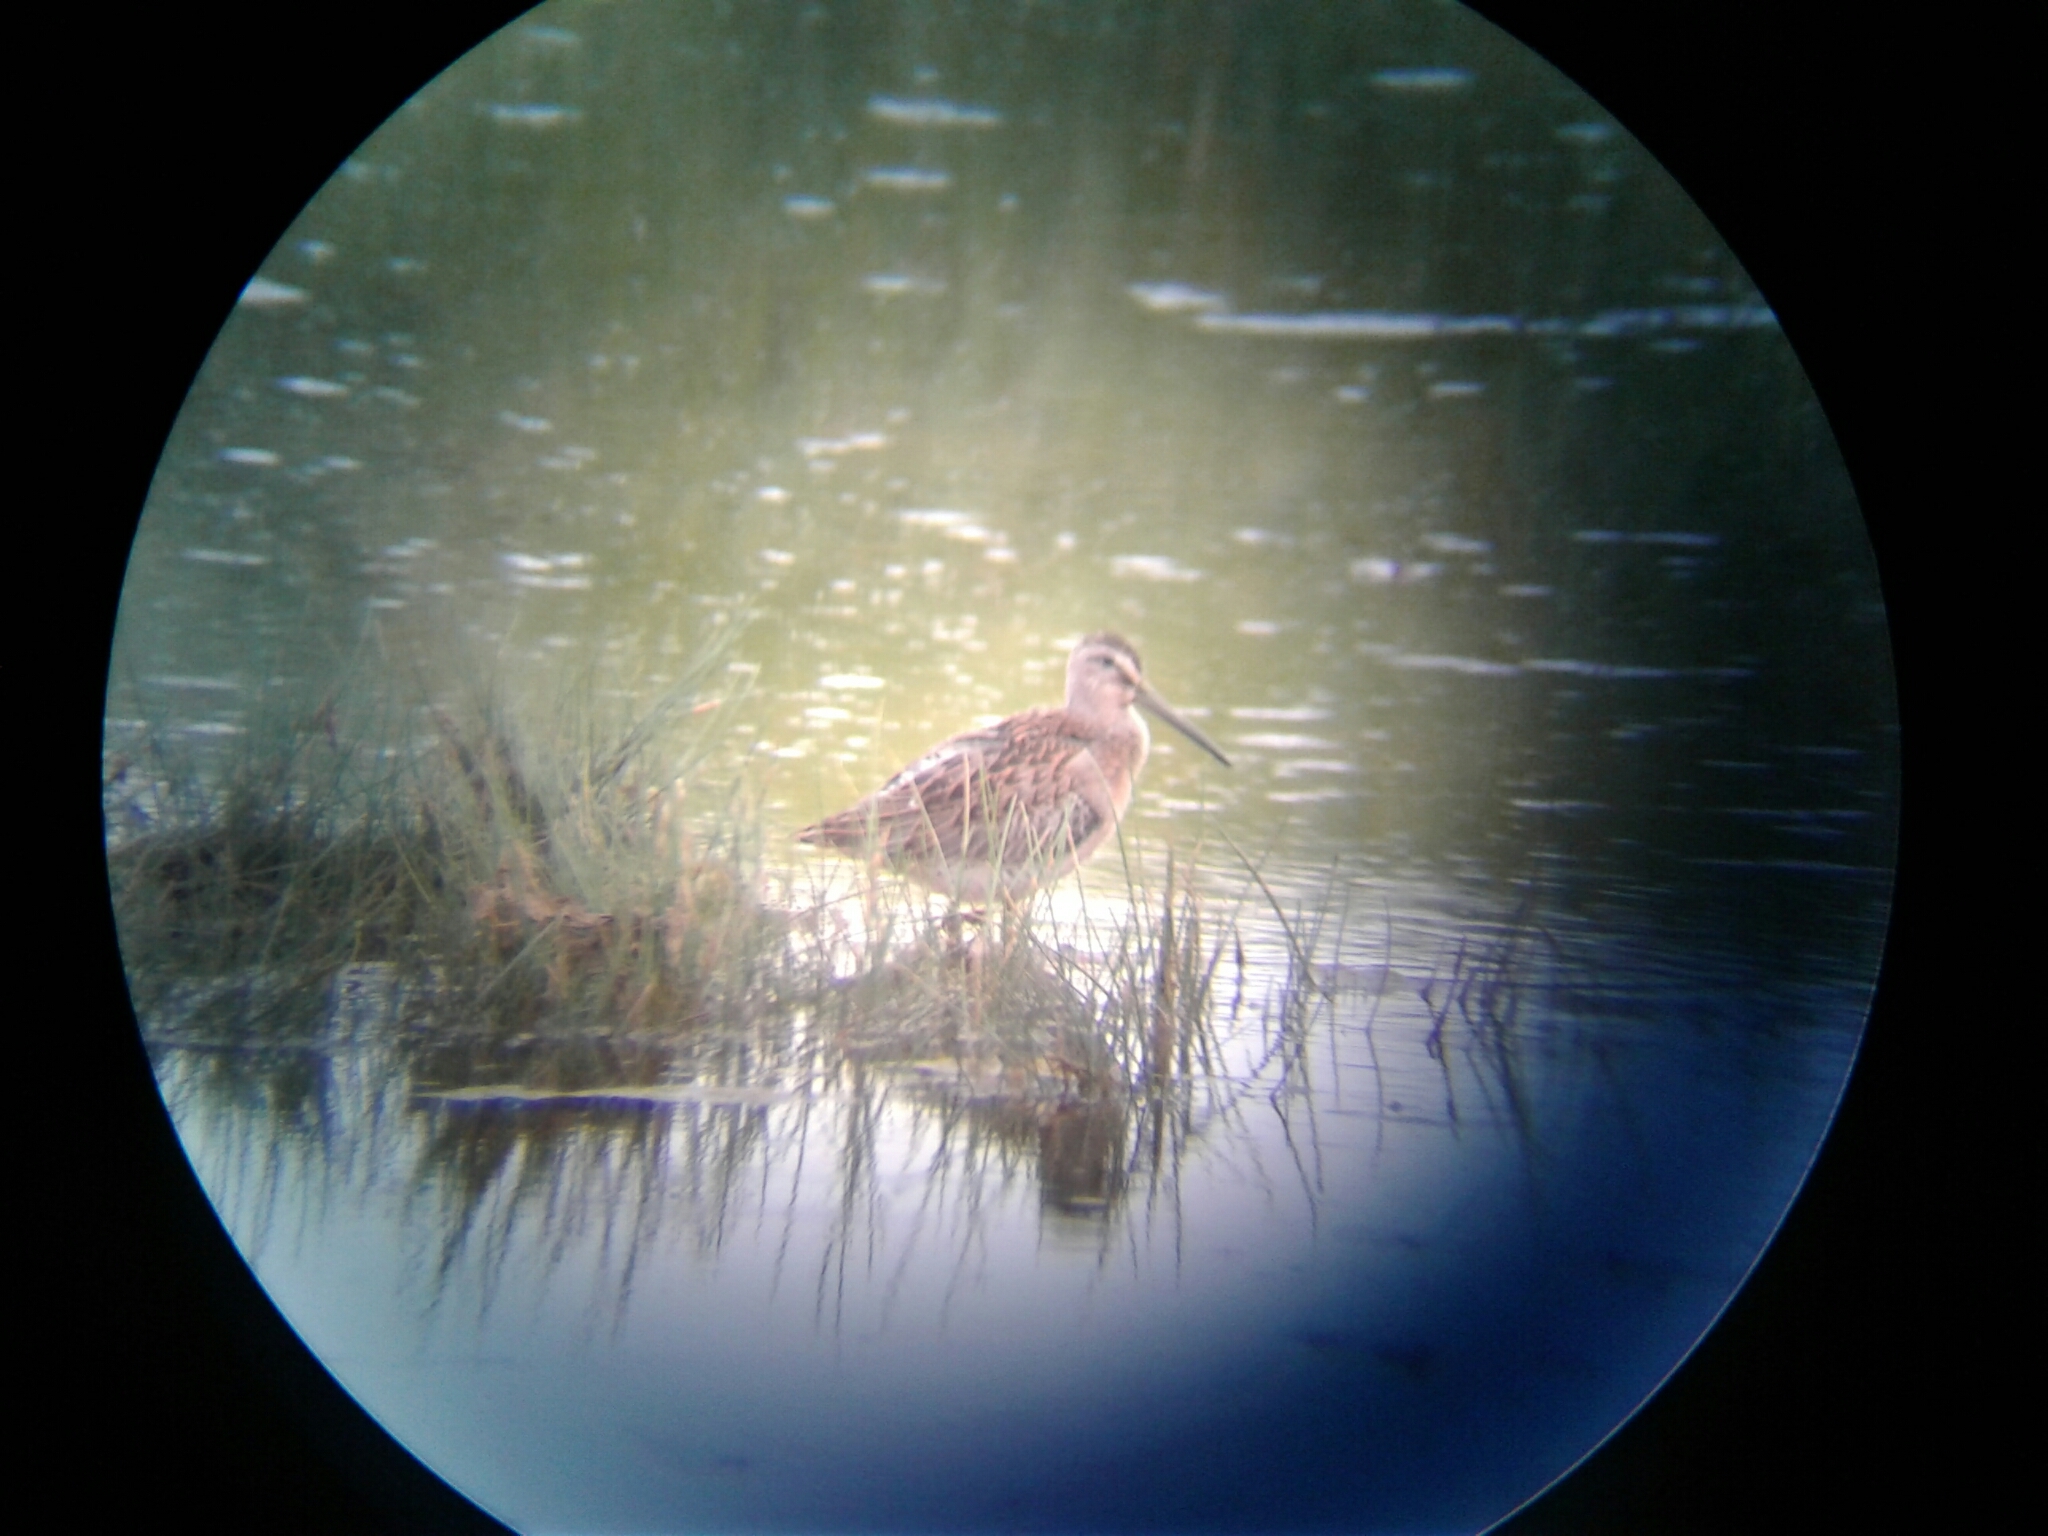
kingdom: Animalia
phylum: Chordata
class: Aves
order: Charadriiformes
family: Scolopacidae
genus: Limnodromus
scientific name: Limnodromus griseus
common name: Short-billed dowitcher
